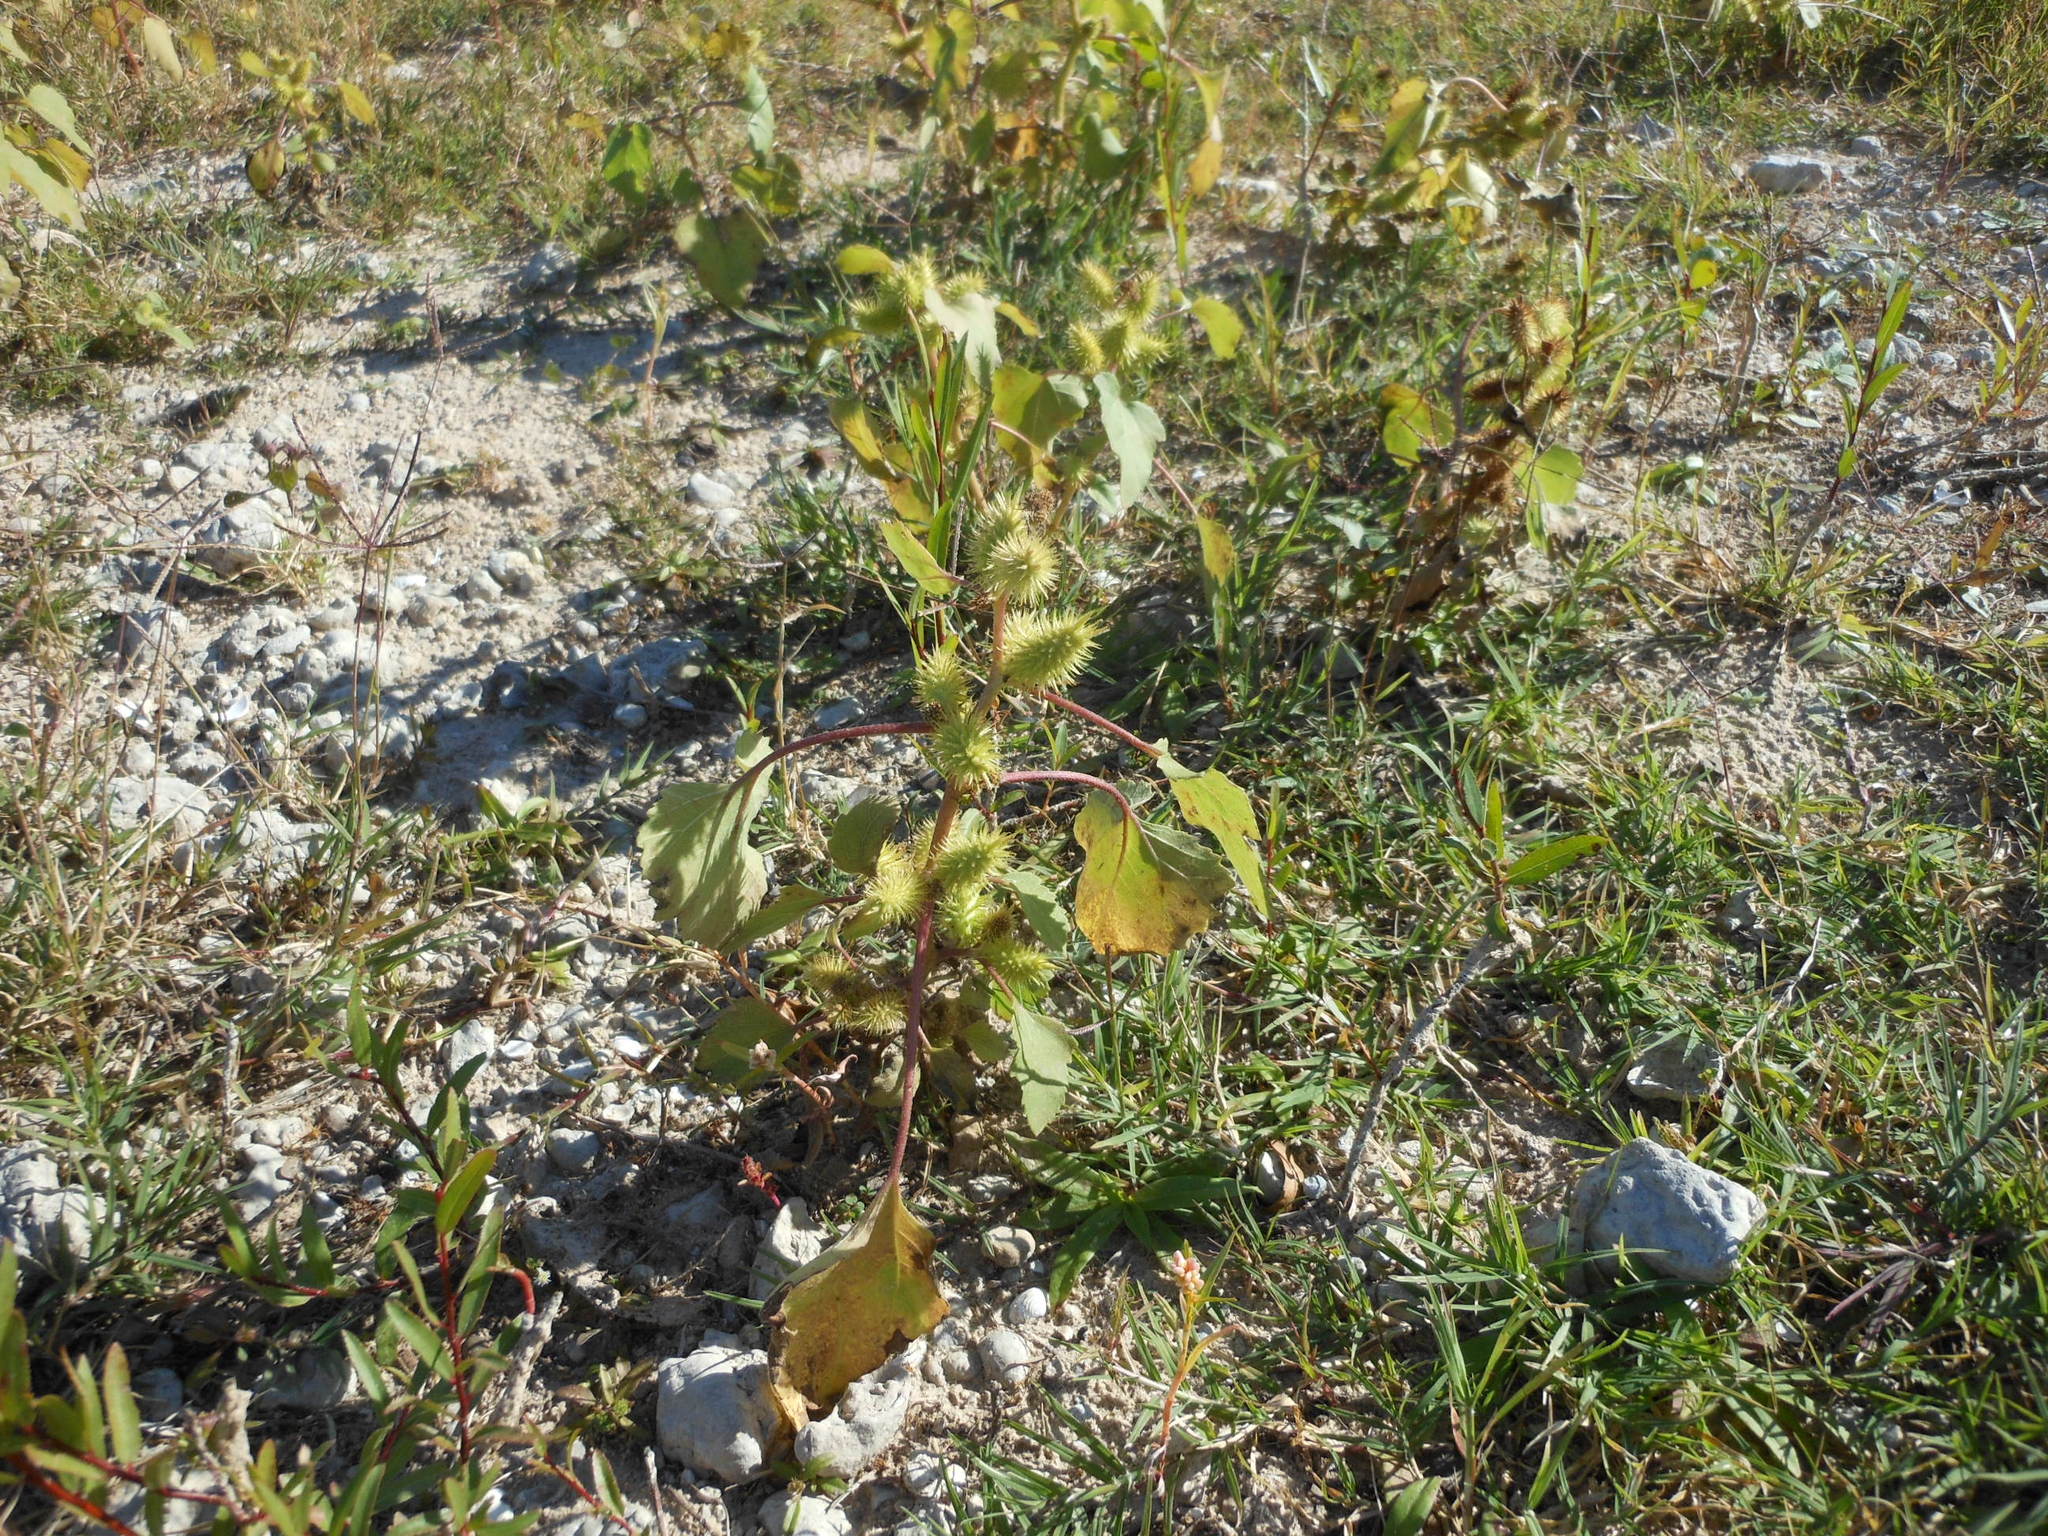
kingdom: Plantae
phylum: Tracheophyta
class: Magnoliopsida
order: Asterales
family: Asteraceae
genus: Xanthium
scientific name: Xanthium strumarium
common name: Rough cocklebur
